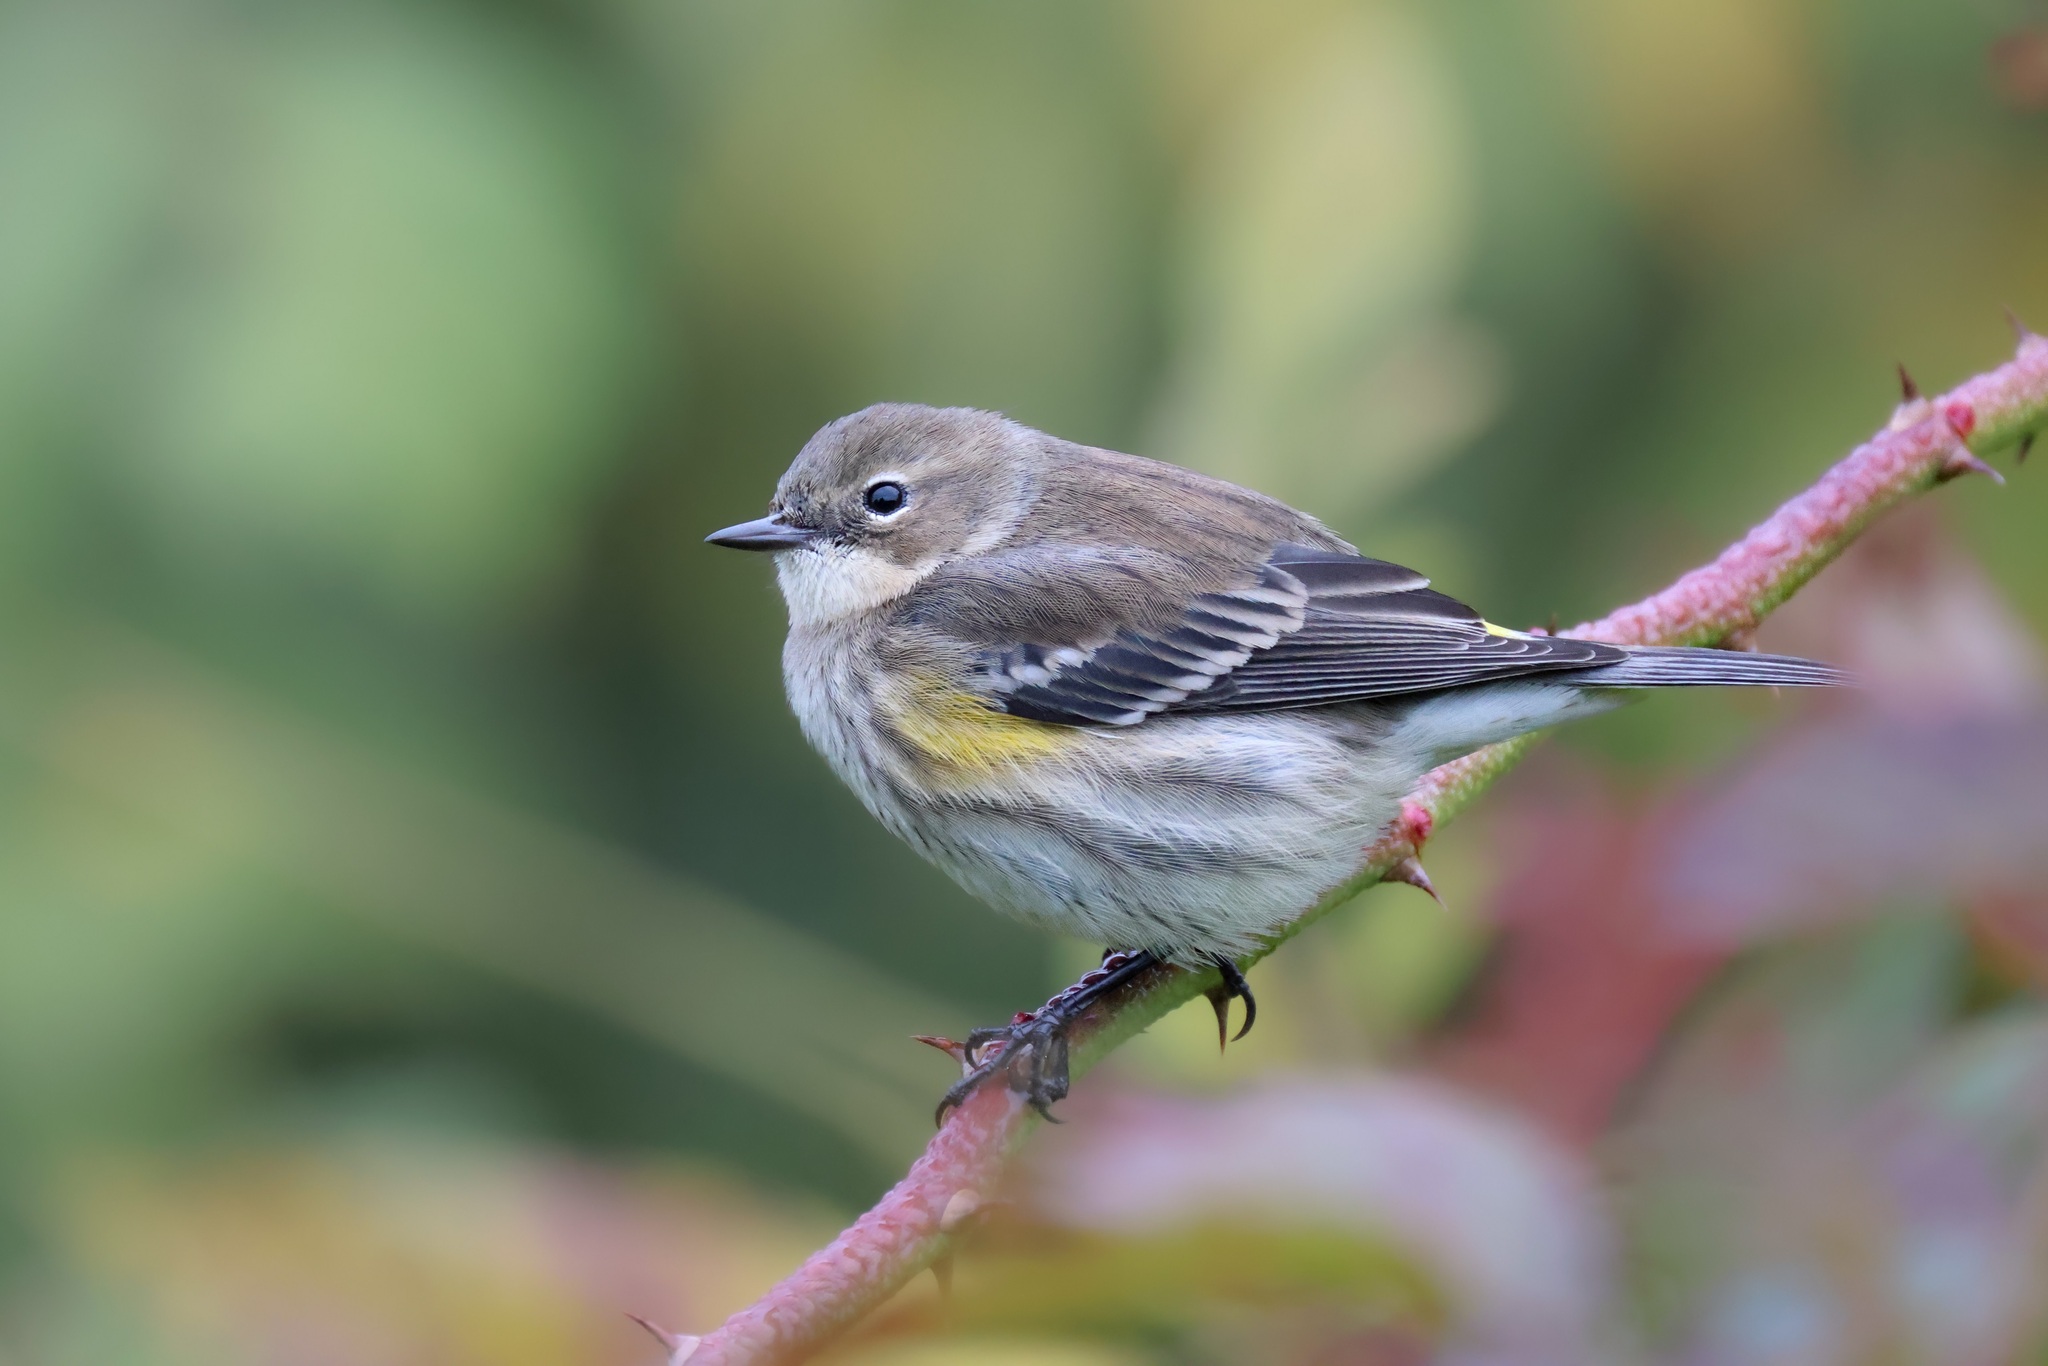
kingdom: Animalia
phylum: Chordata
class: Aves
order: Passeriformes
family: Parulidae
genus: Setophaga
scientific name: Setophaga coronata
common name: Myrtle warbler
